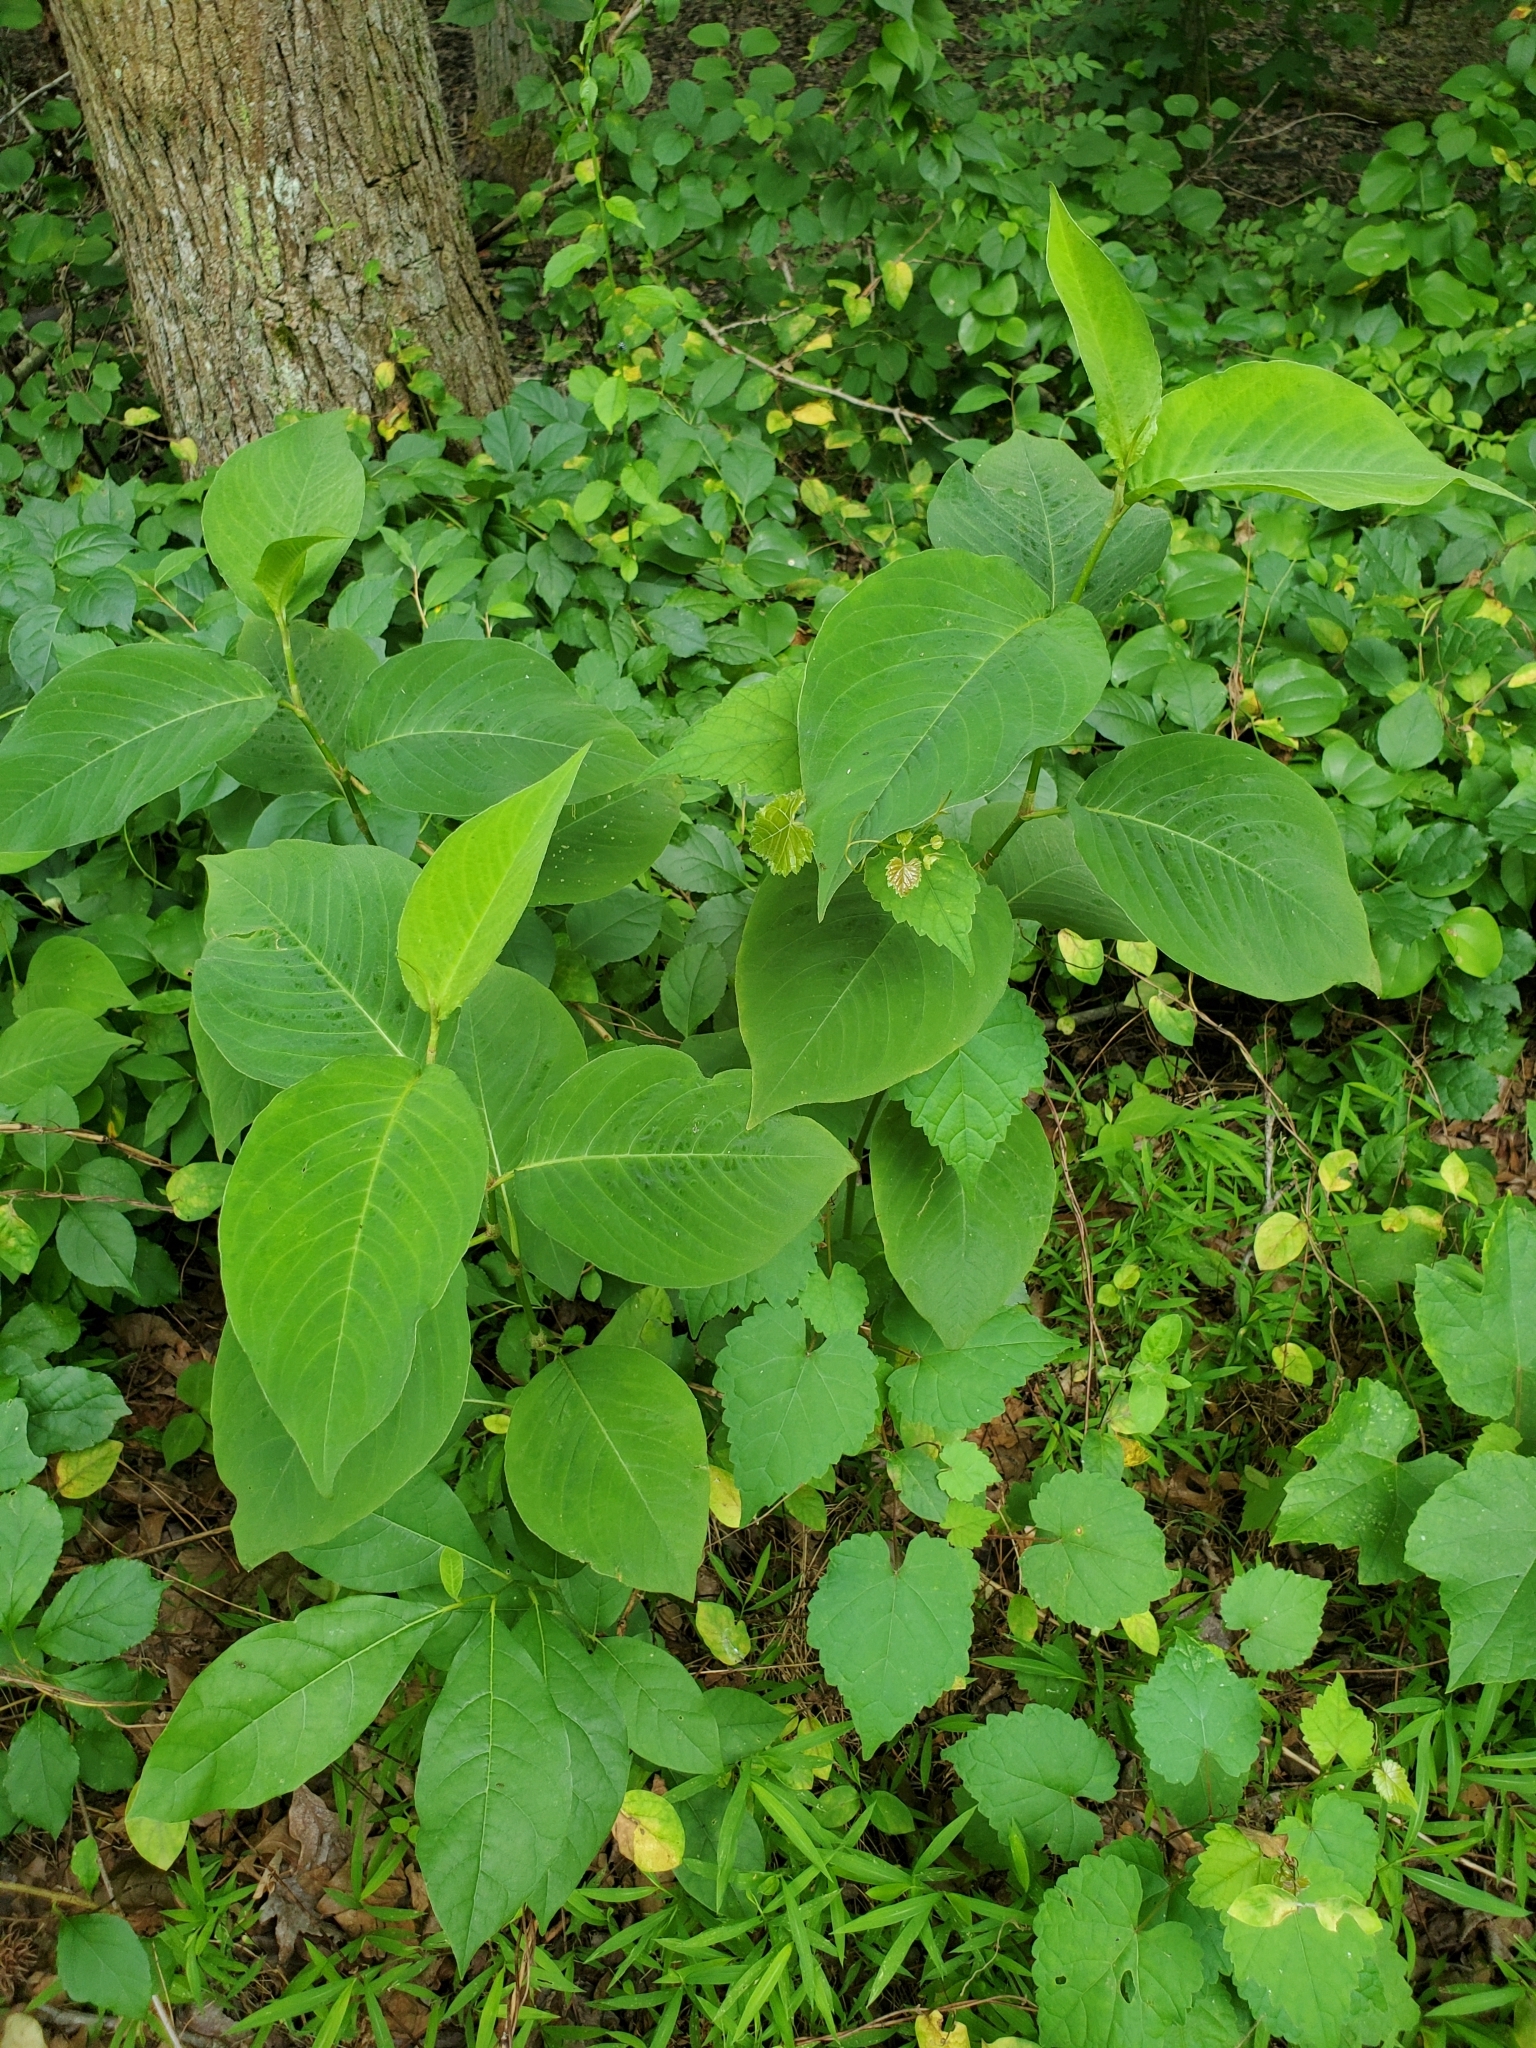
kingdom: Plantae
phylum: Tracheophyta
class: Magnoliopsida
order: Caryophyllales
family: Polygonaceae
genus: Persicaria
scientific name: Persicaria virginiana
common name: Jumpseed
